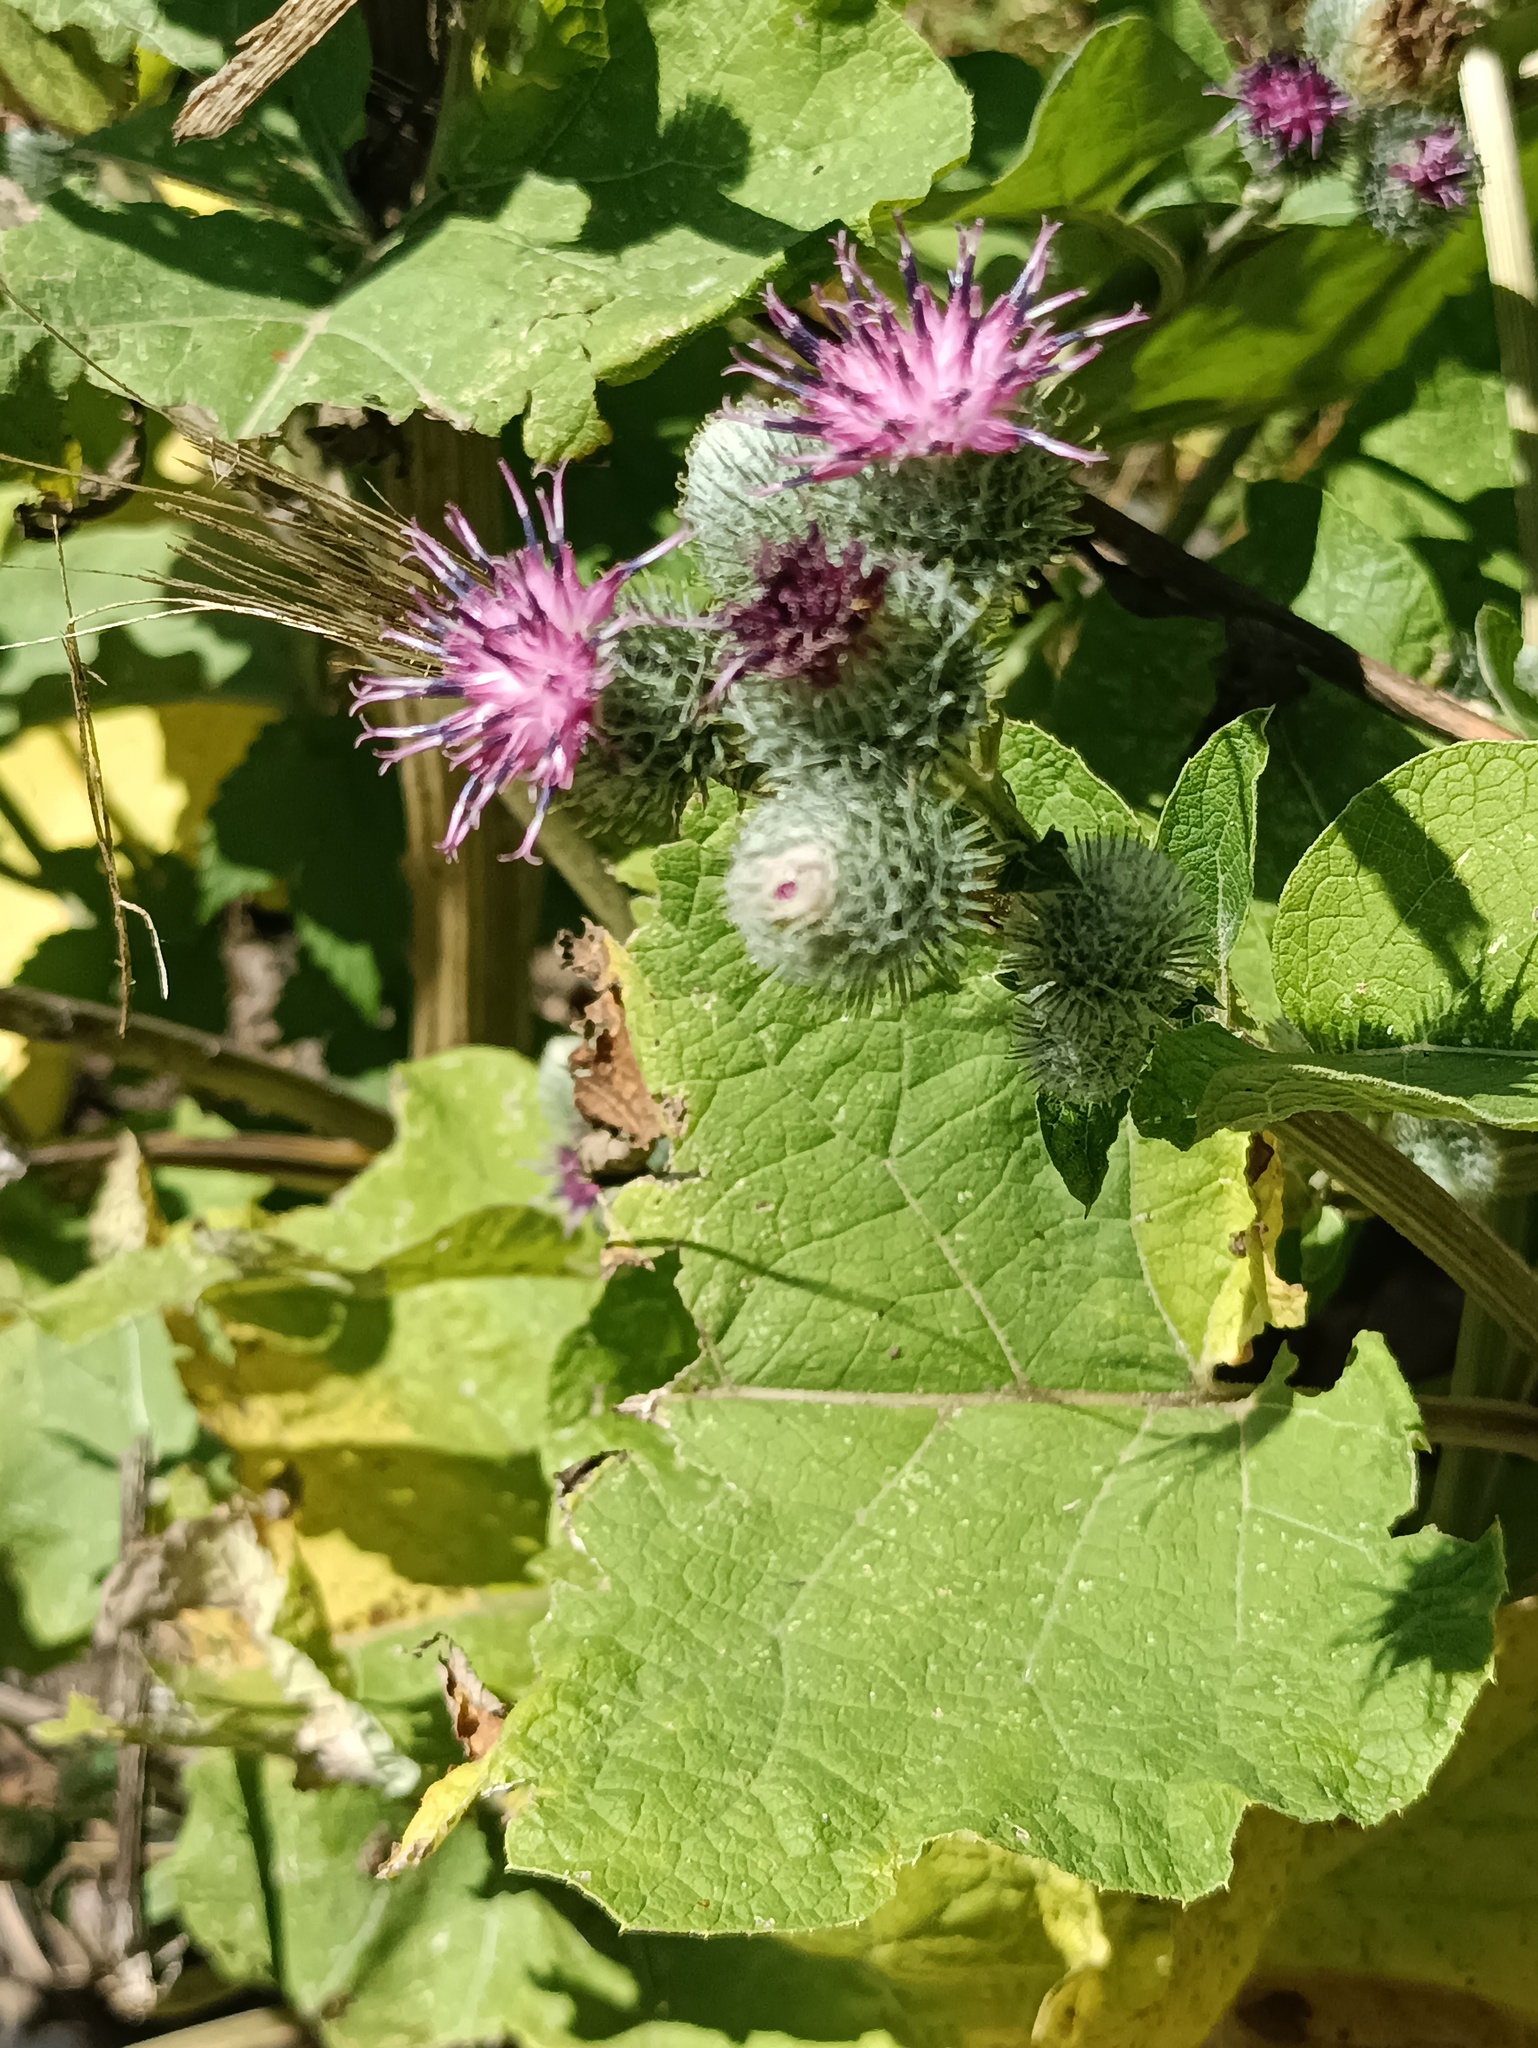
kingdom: Plantae
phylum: Tracheophyta
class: Magnoliopsida
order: Asterales
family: Asteraceae
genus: Arctium
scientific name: Arctium tomentosum
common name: Woolly burdock
